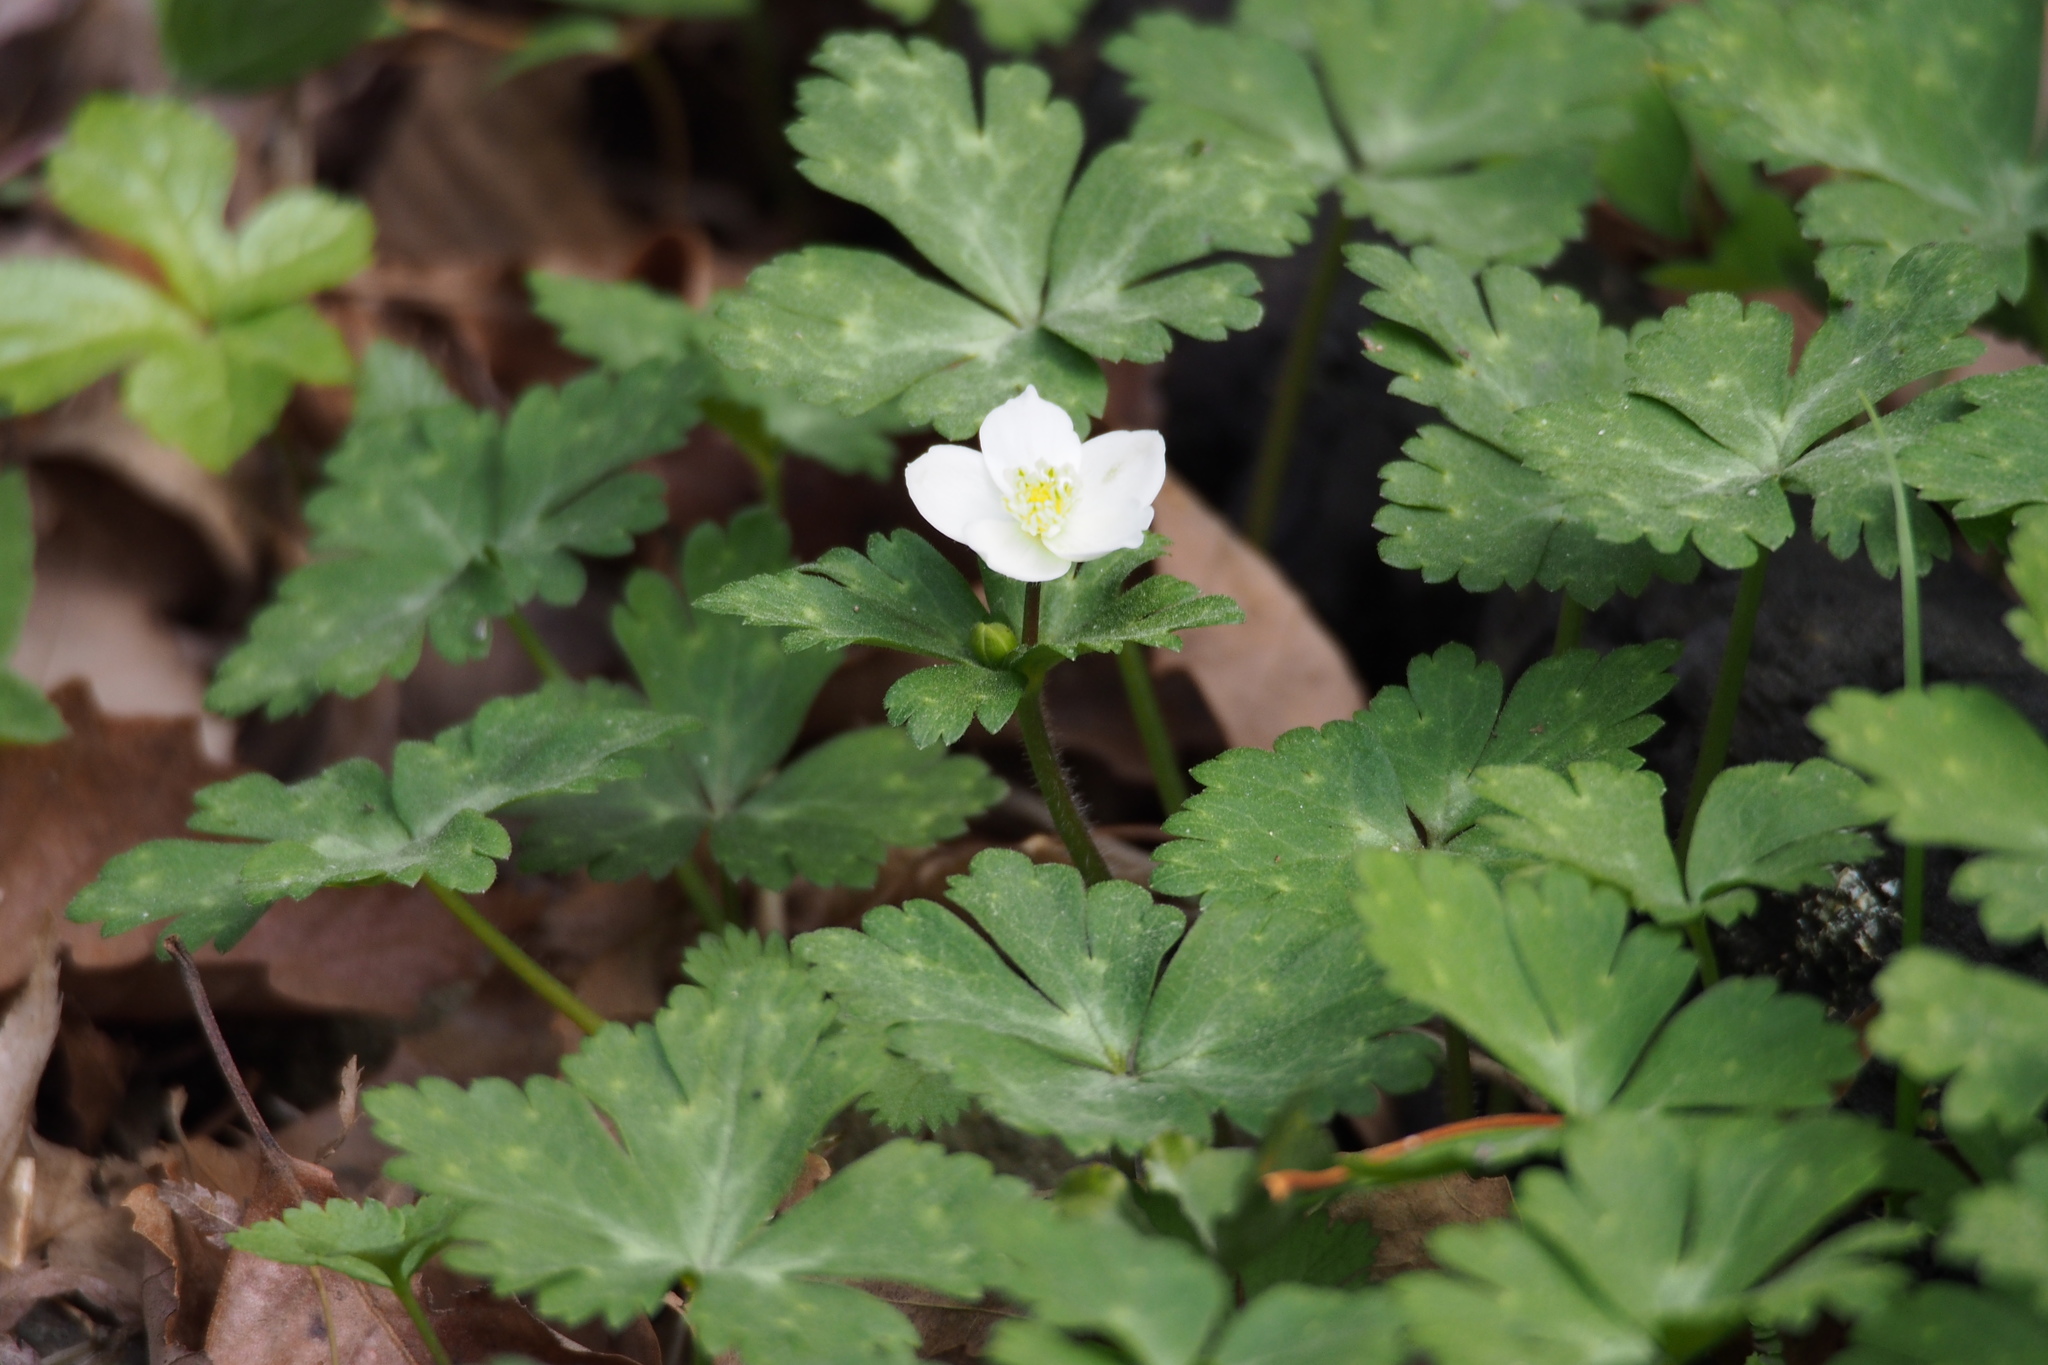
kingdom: Plantae
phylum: Tracheophyta
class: Magnoliopsida
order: Ranunculales
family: Ranunculaceae
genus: Anemonastrum
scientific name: Anemonastrum flaccidum
